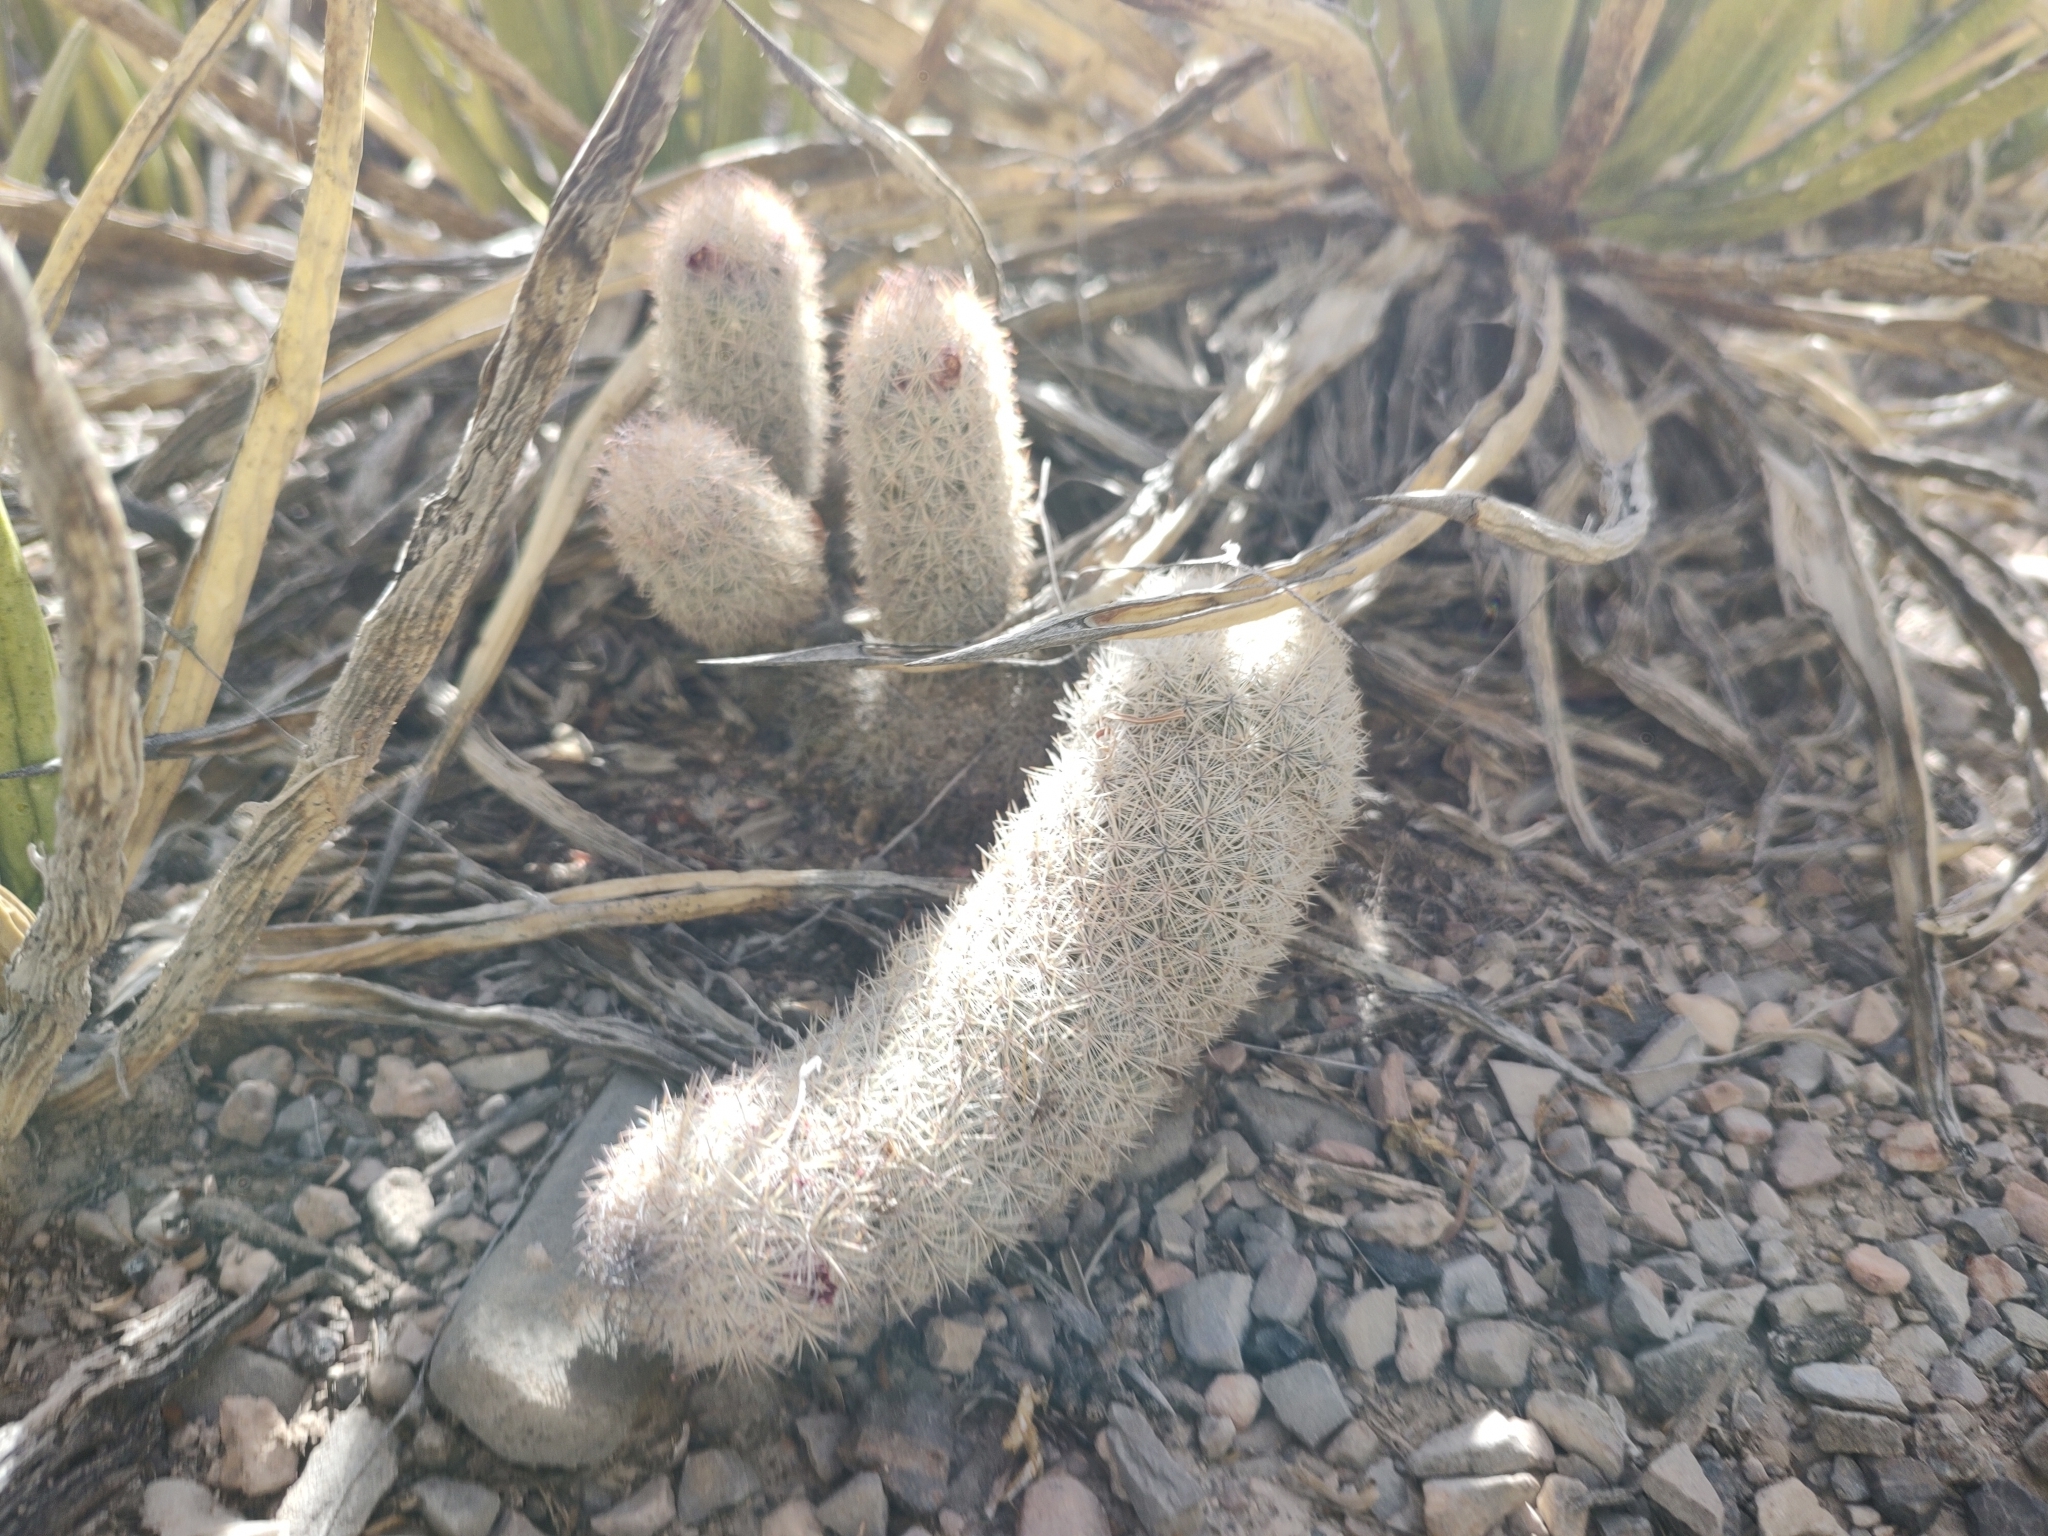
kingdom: Plantae
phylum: Tracheophyta
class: Magnoliopsida
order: Caryophyllales
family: Cactaceae
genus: Mammillaria
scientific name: Mammillaria pottsii
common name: Pott's nipple-cactus
